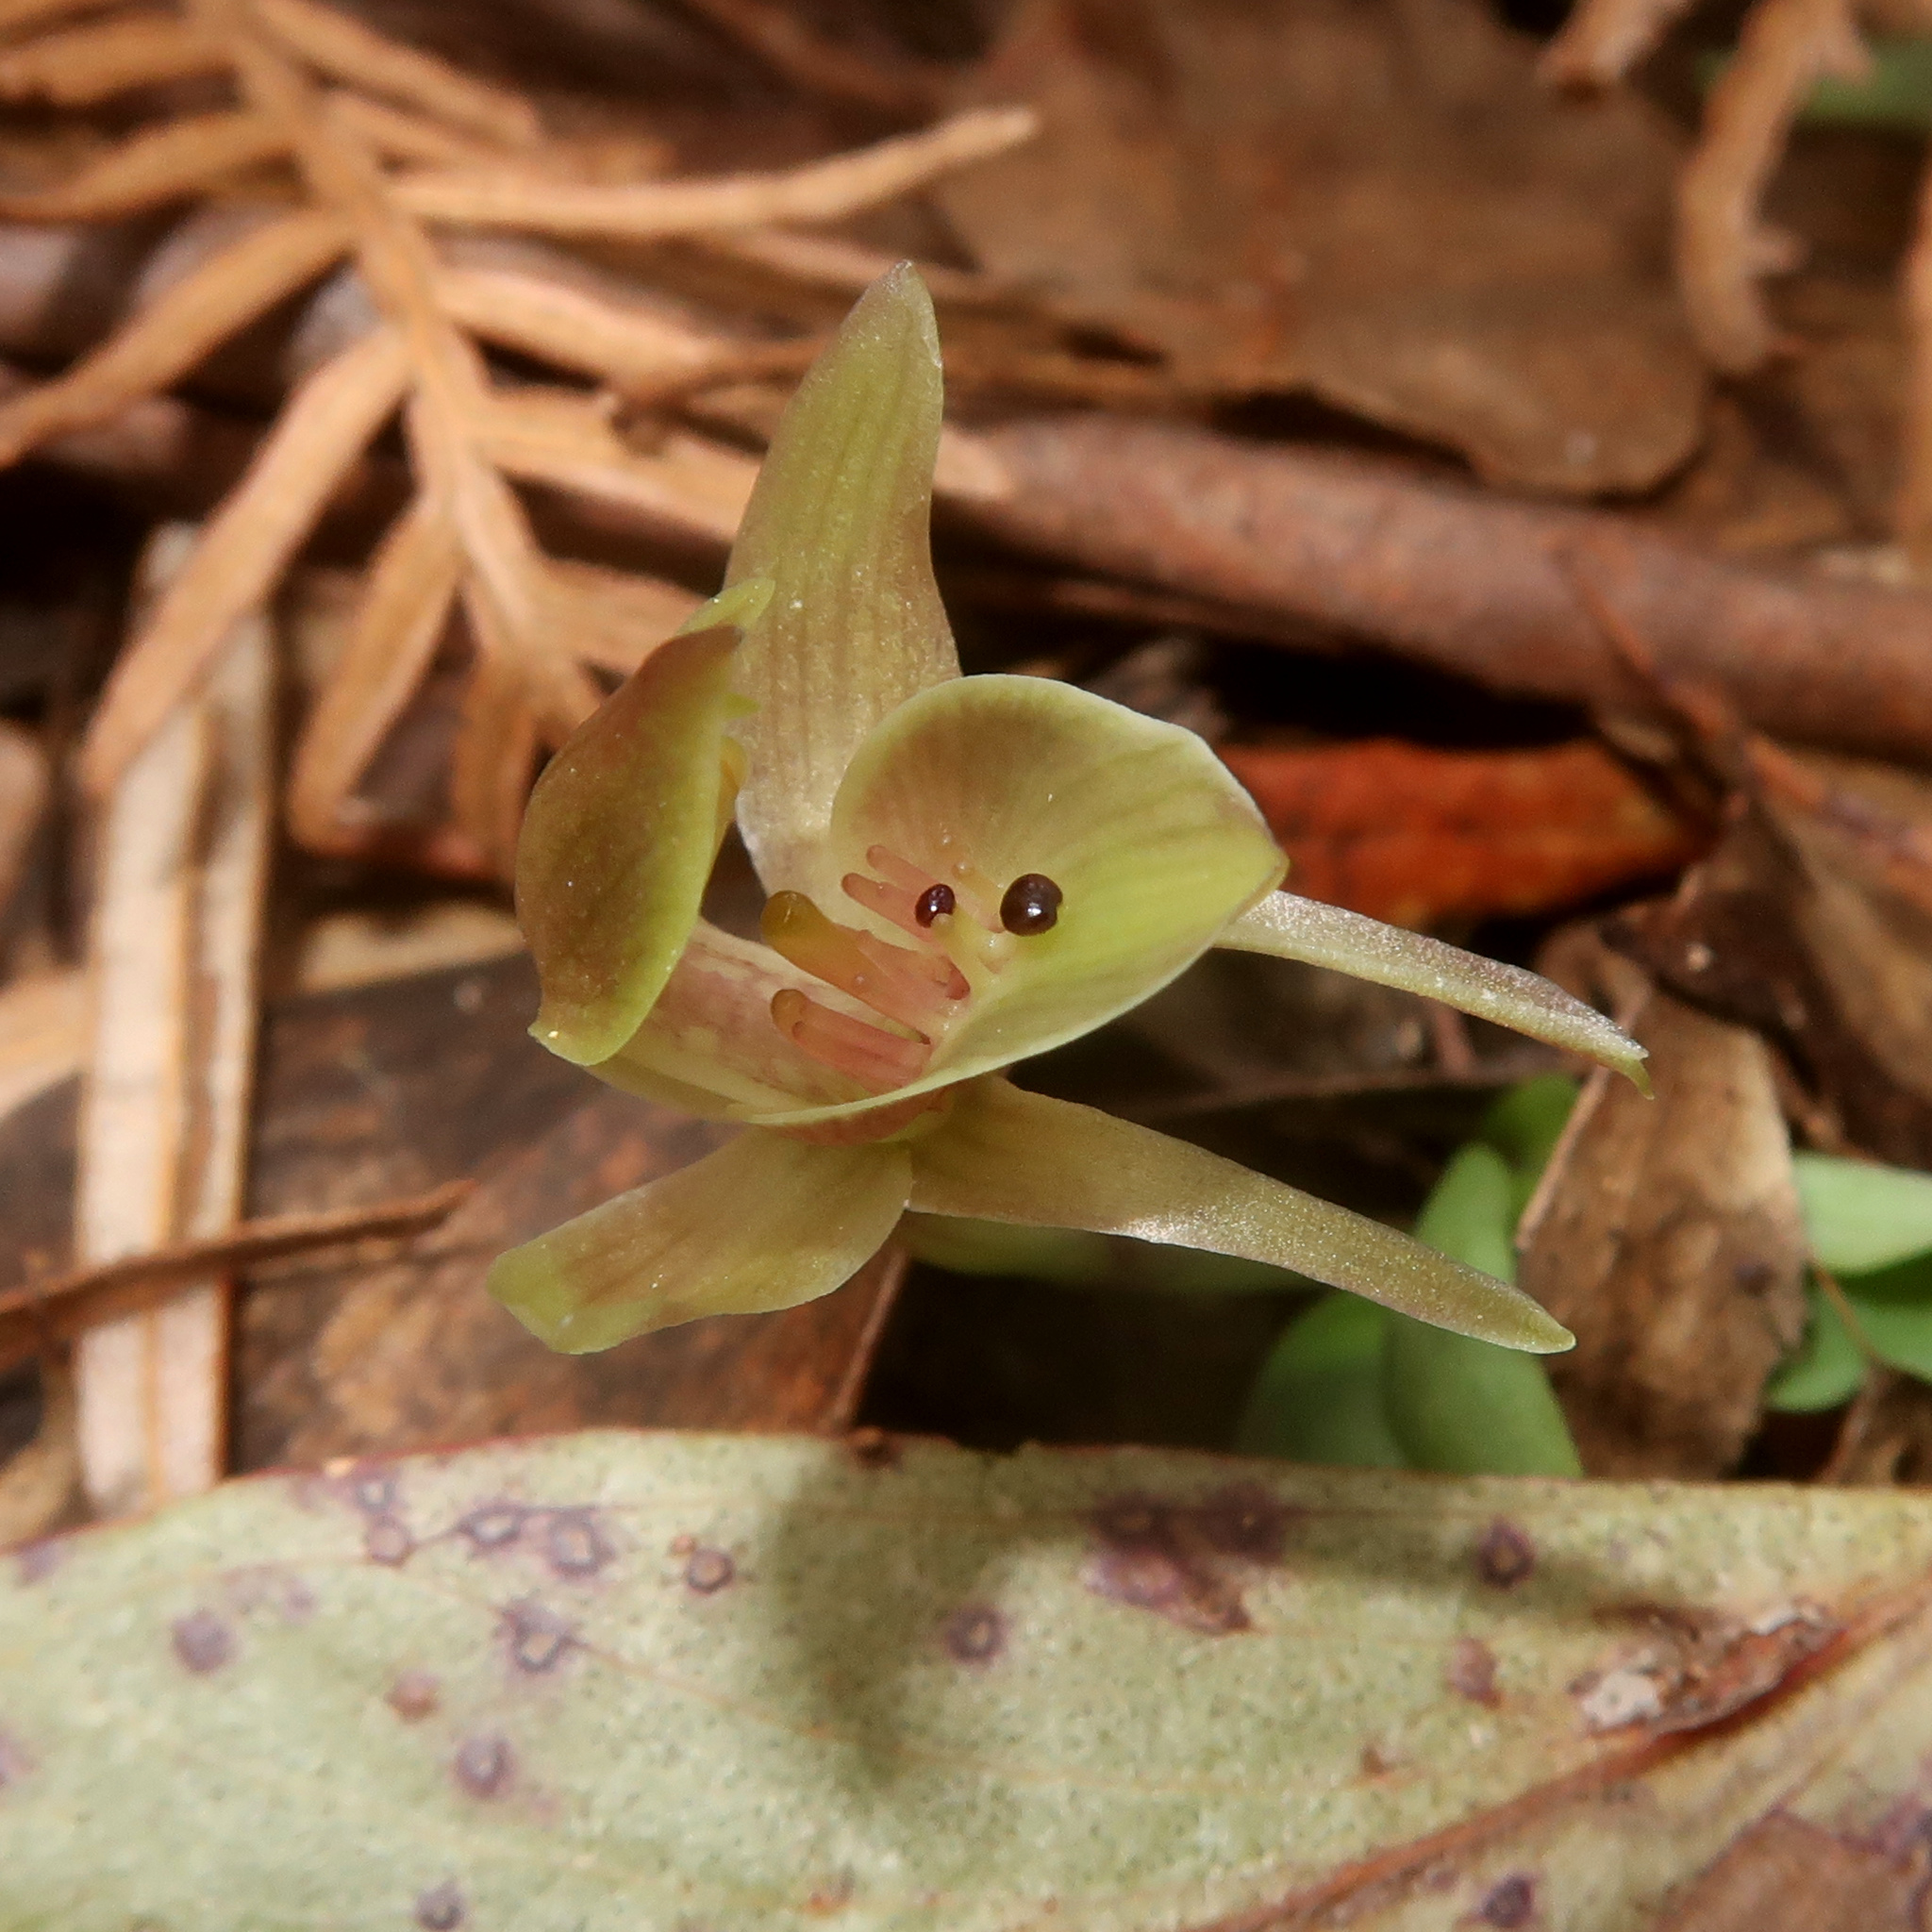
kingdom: Plantae
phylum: Tracheophyta
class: Liliopsida
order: Asparagales
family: Orchidaceae
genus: Chiloglottis
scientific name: Chiloglottis triceratops
